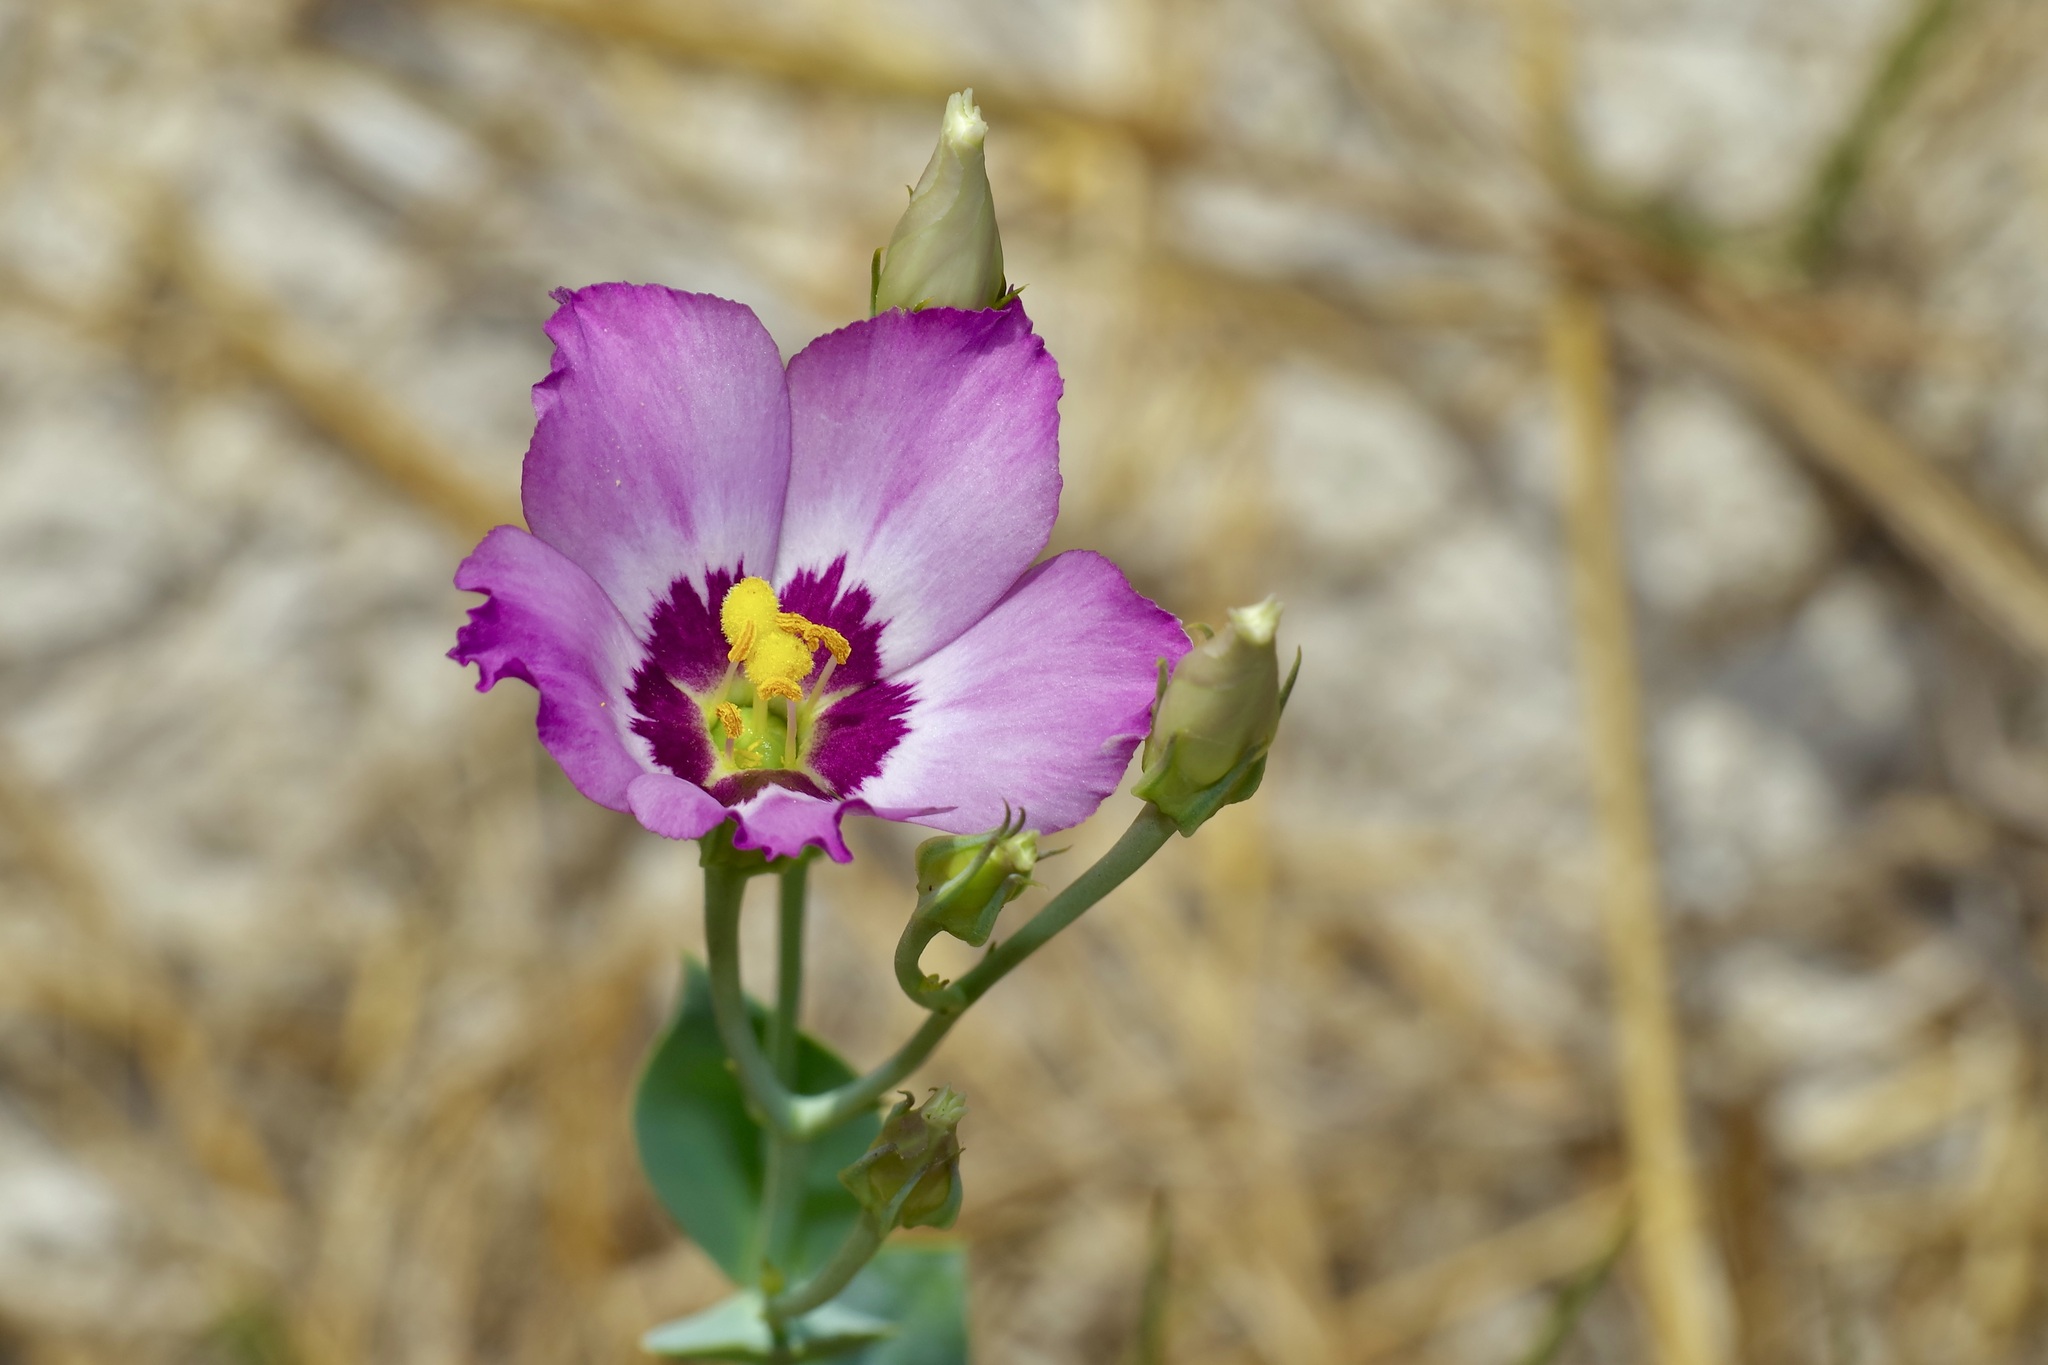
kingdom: Plantae
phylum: Tracheophyta
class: Magnoliopsida
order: Gentianales
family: Gentianaceae
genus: Eustoma
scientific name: Eustoma exaltatum
